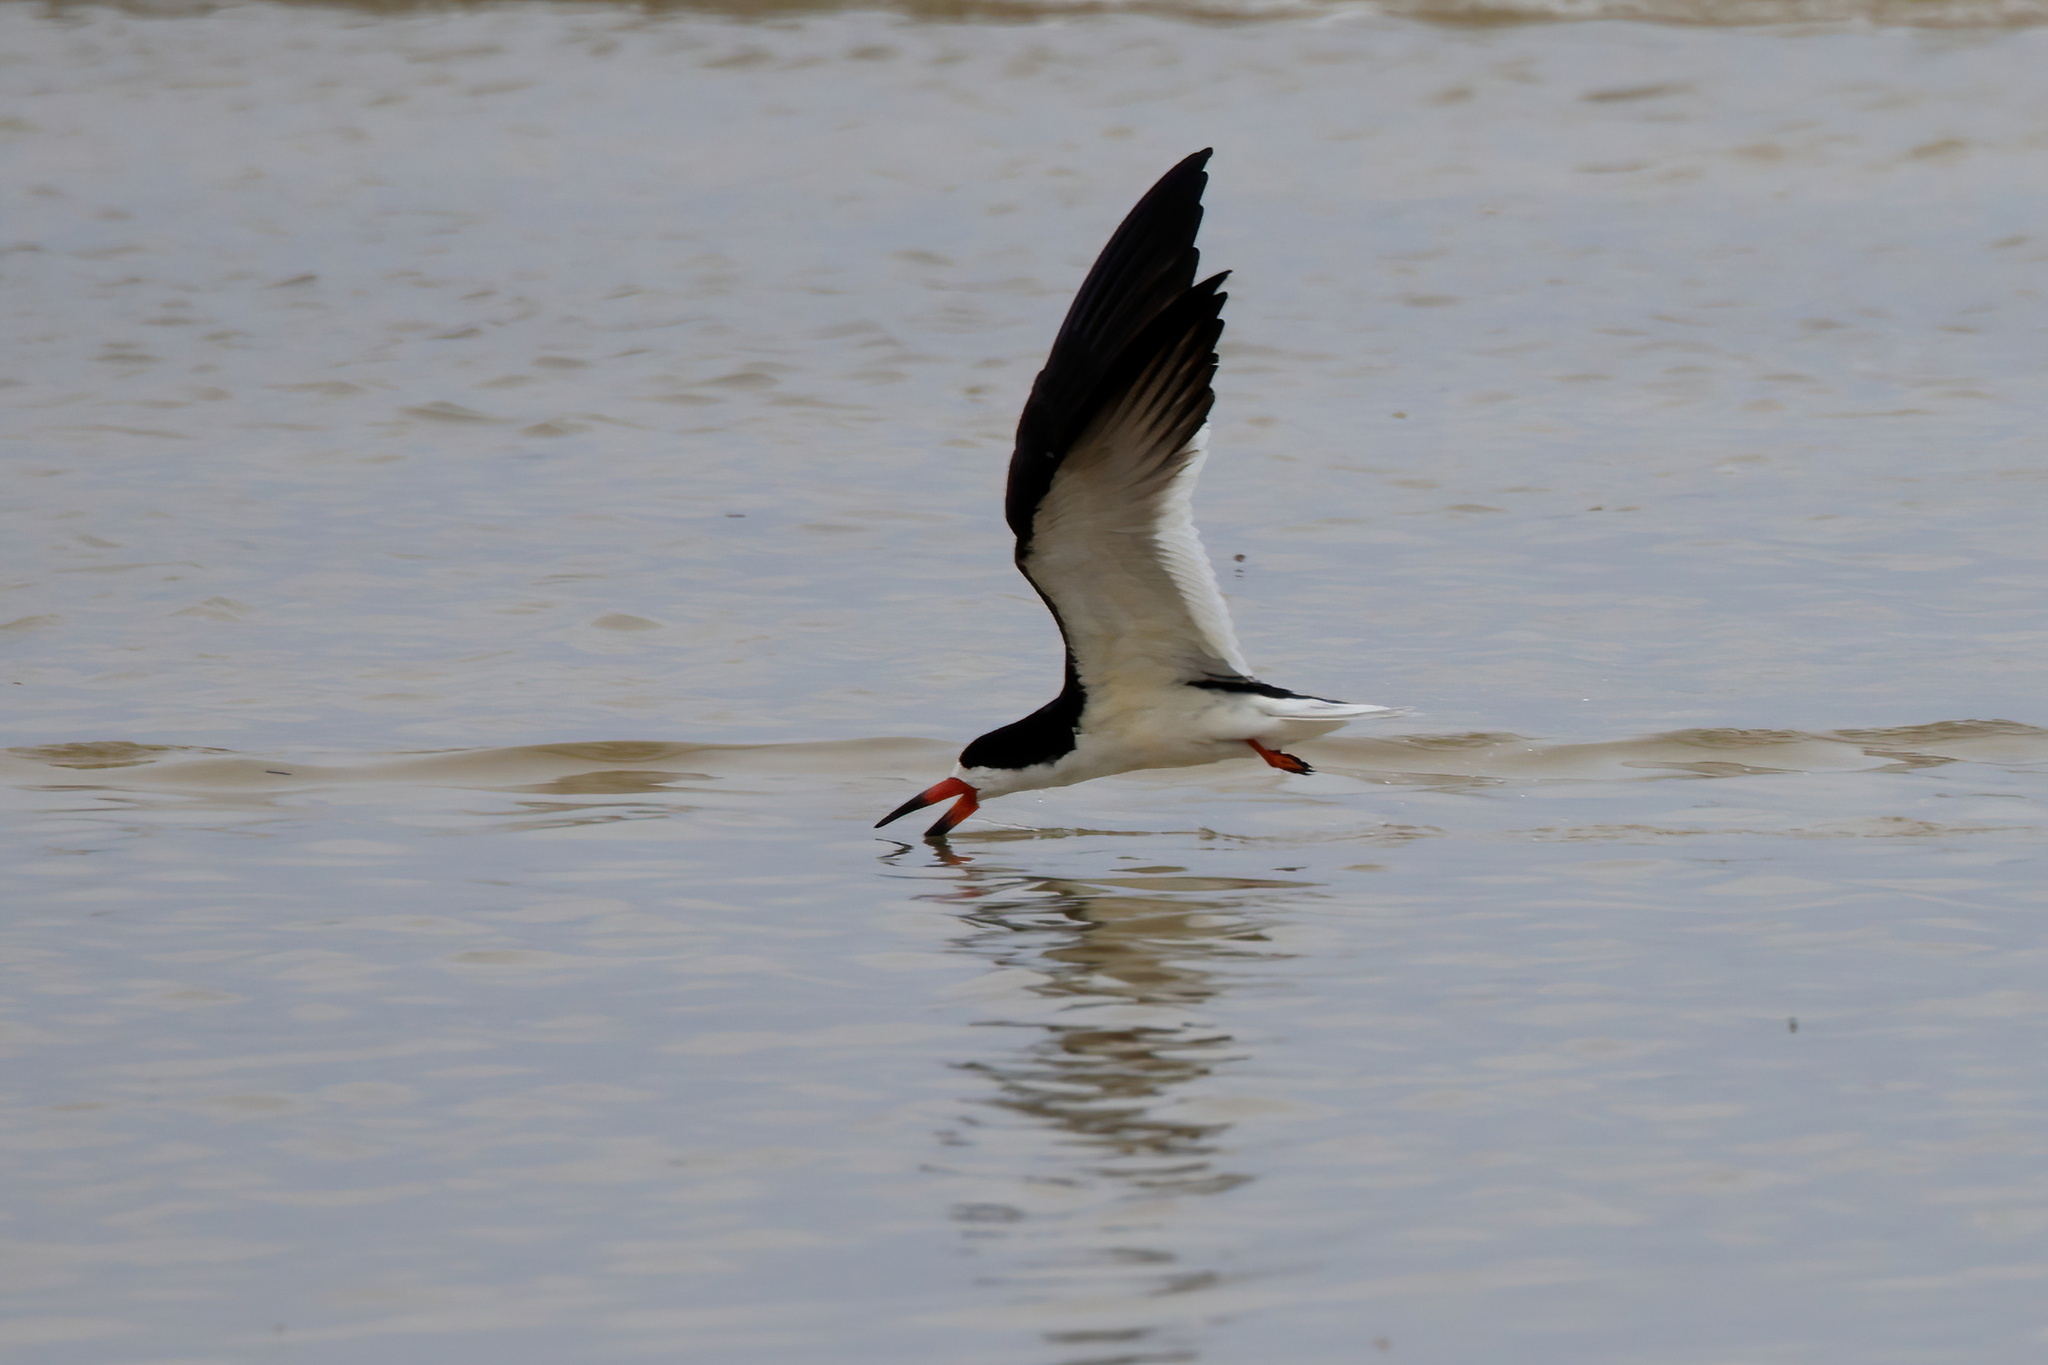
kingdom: Animalia
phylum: Chordata
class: Aves
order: Charadriiformes
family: Laridae
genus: Rynchops
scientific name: Rynchops niger
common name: Black skimmer
